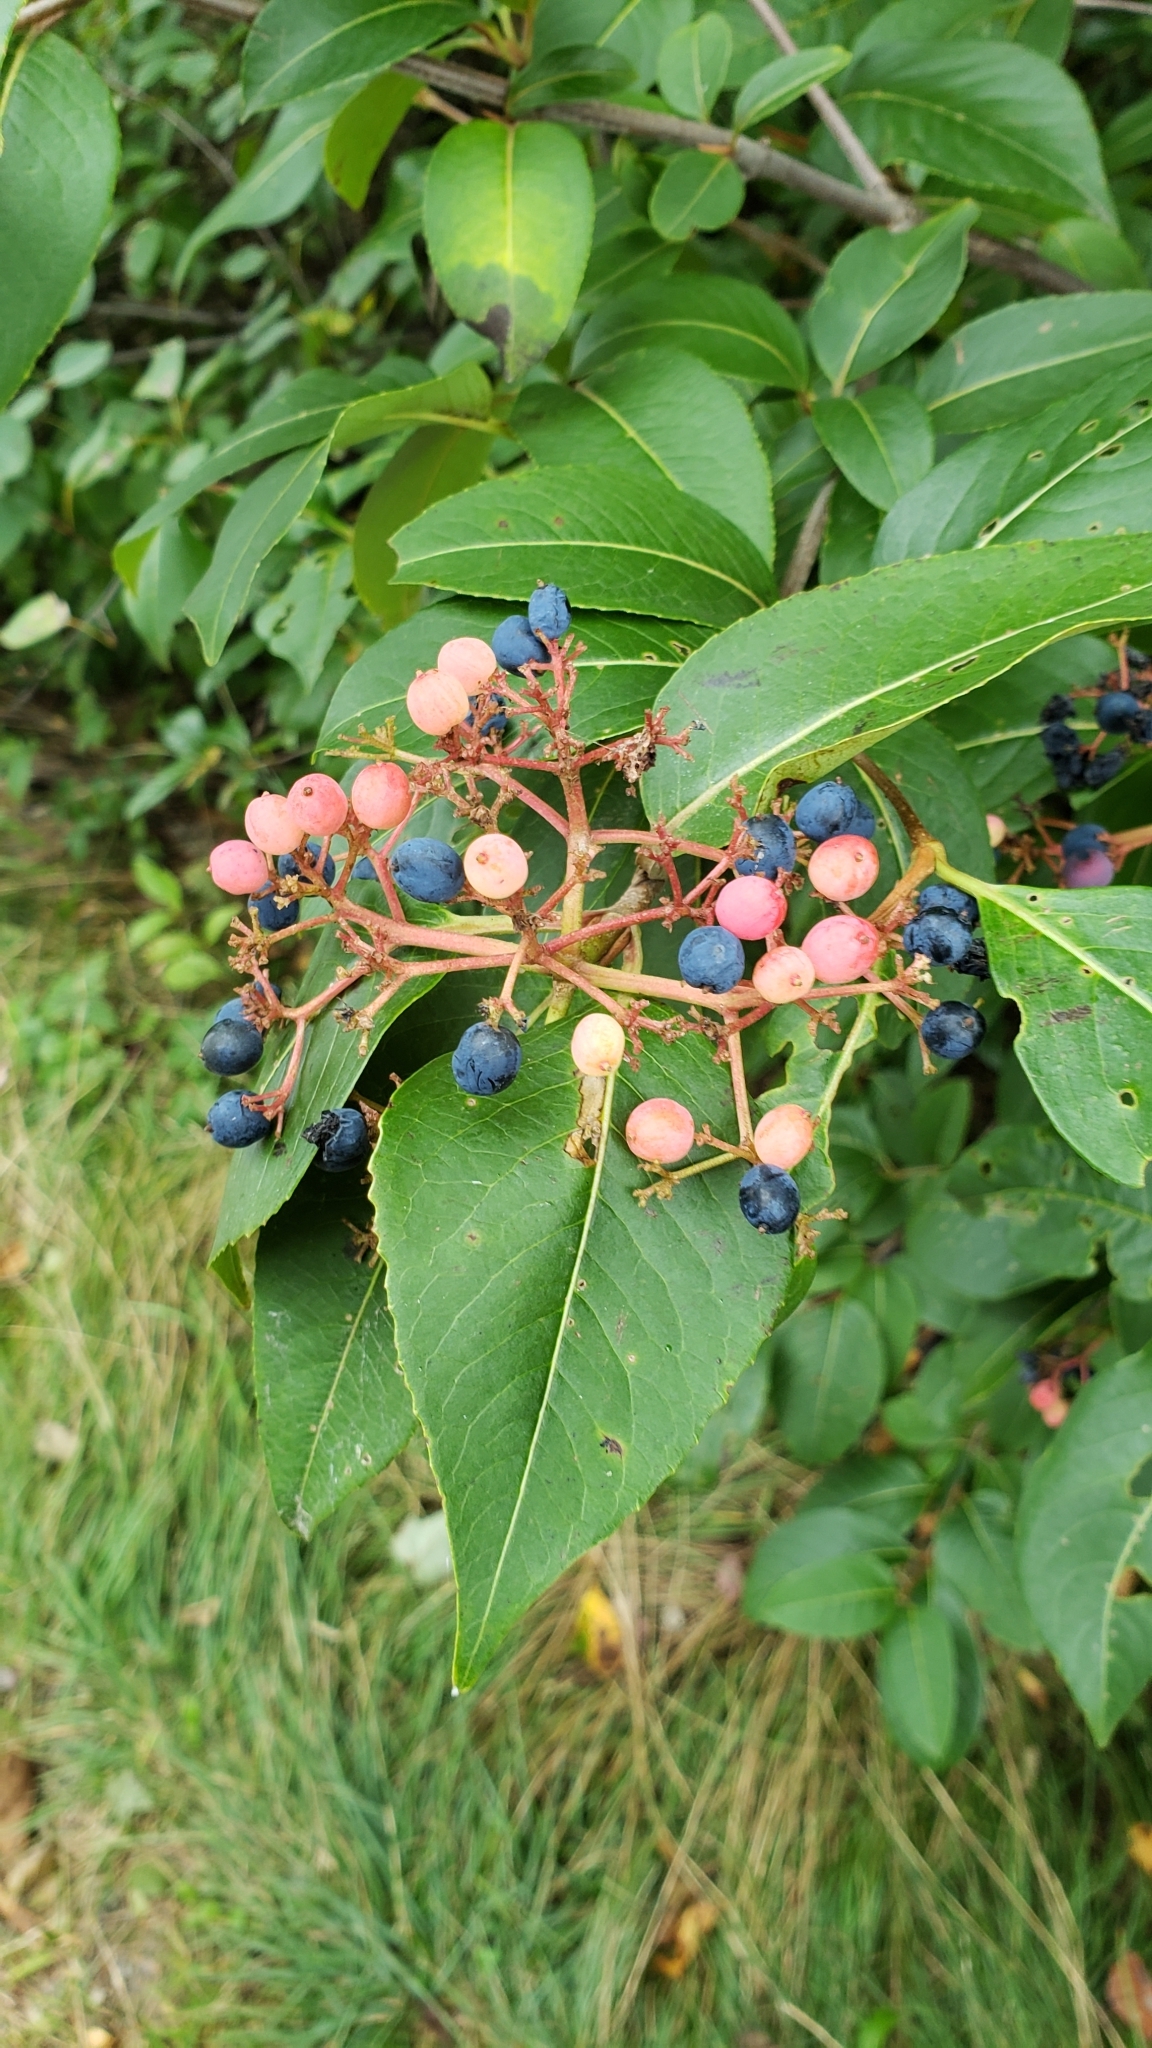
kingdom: Plantae
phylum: Tracheophyta
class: Magnoliopsida
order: Dipsacales
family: Viburnaceae
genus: Viburnum
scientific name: Viburnum cassinoides
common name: Swamp haw
